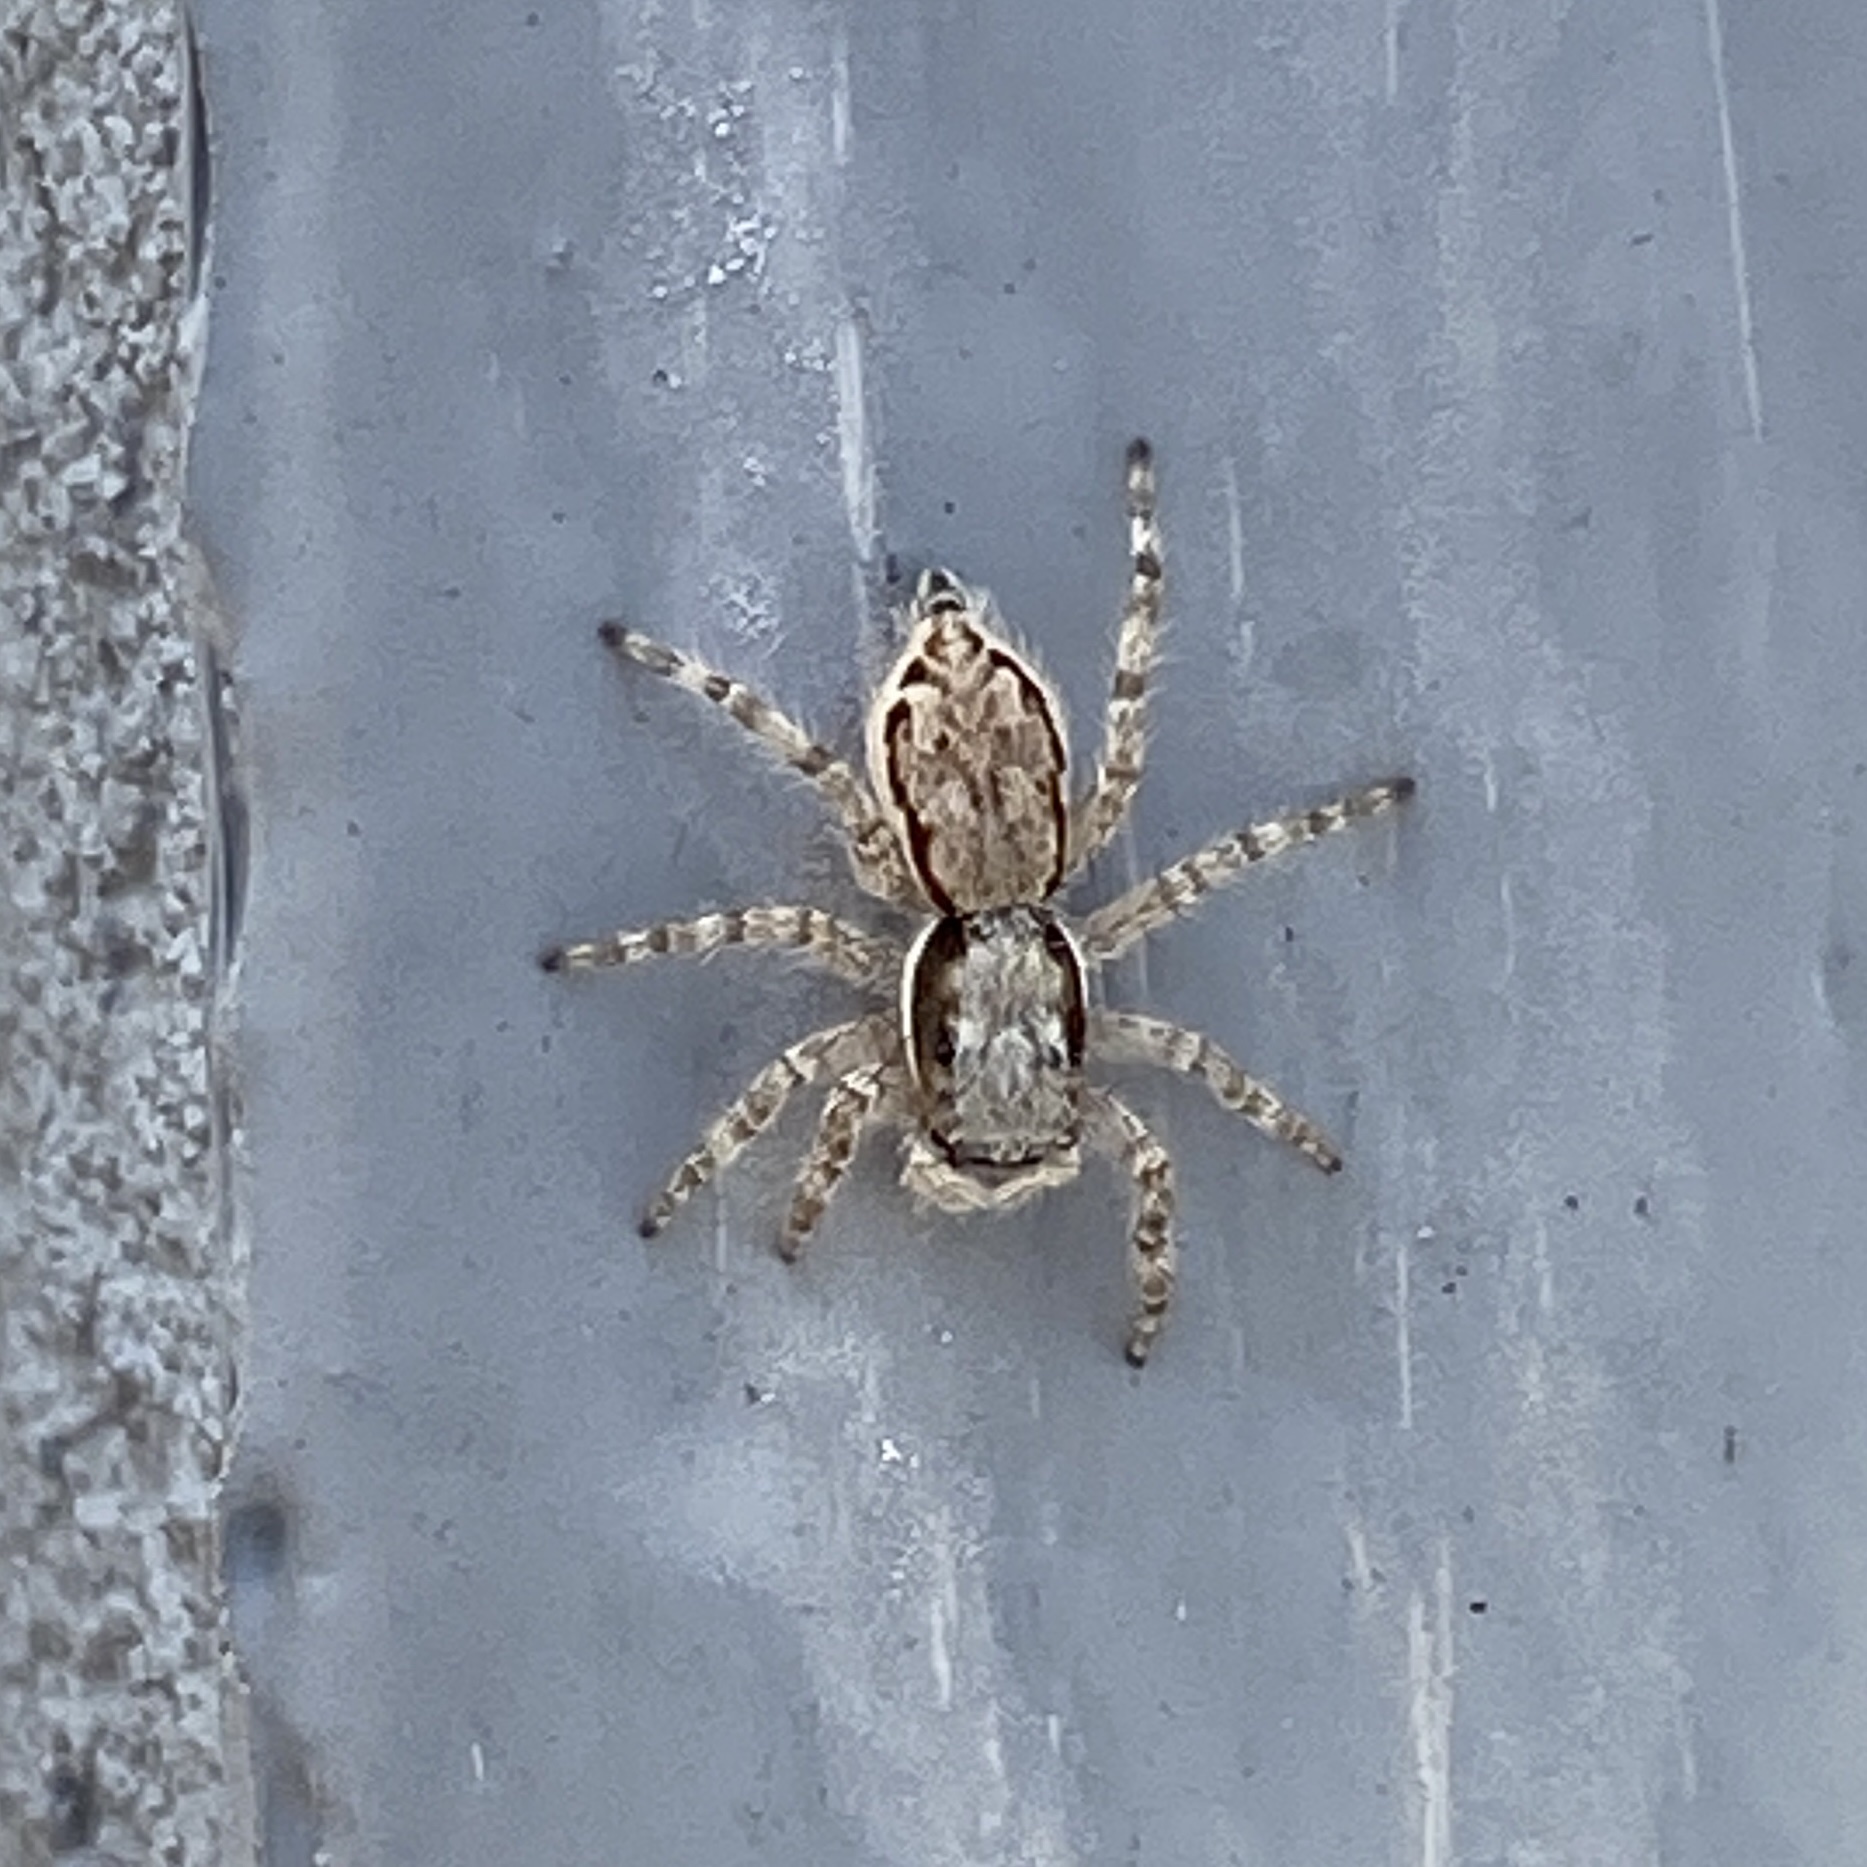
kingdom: Animalia
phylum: Arthropoda
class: Arachnida
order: Araneae
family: Salticidae
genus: Menemerus
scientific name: Menemerus bivittatus
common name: Gray wall jumper
